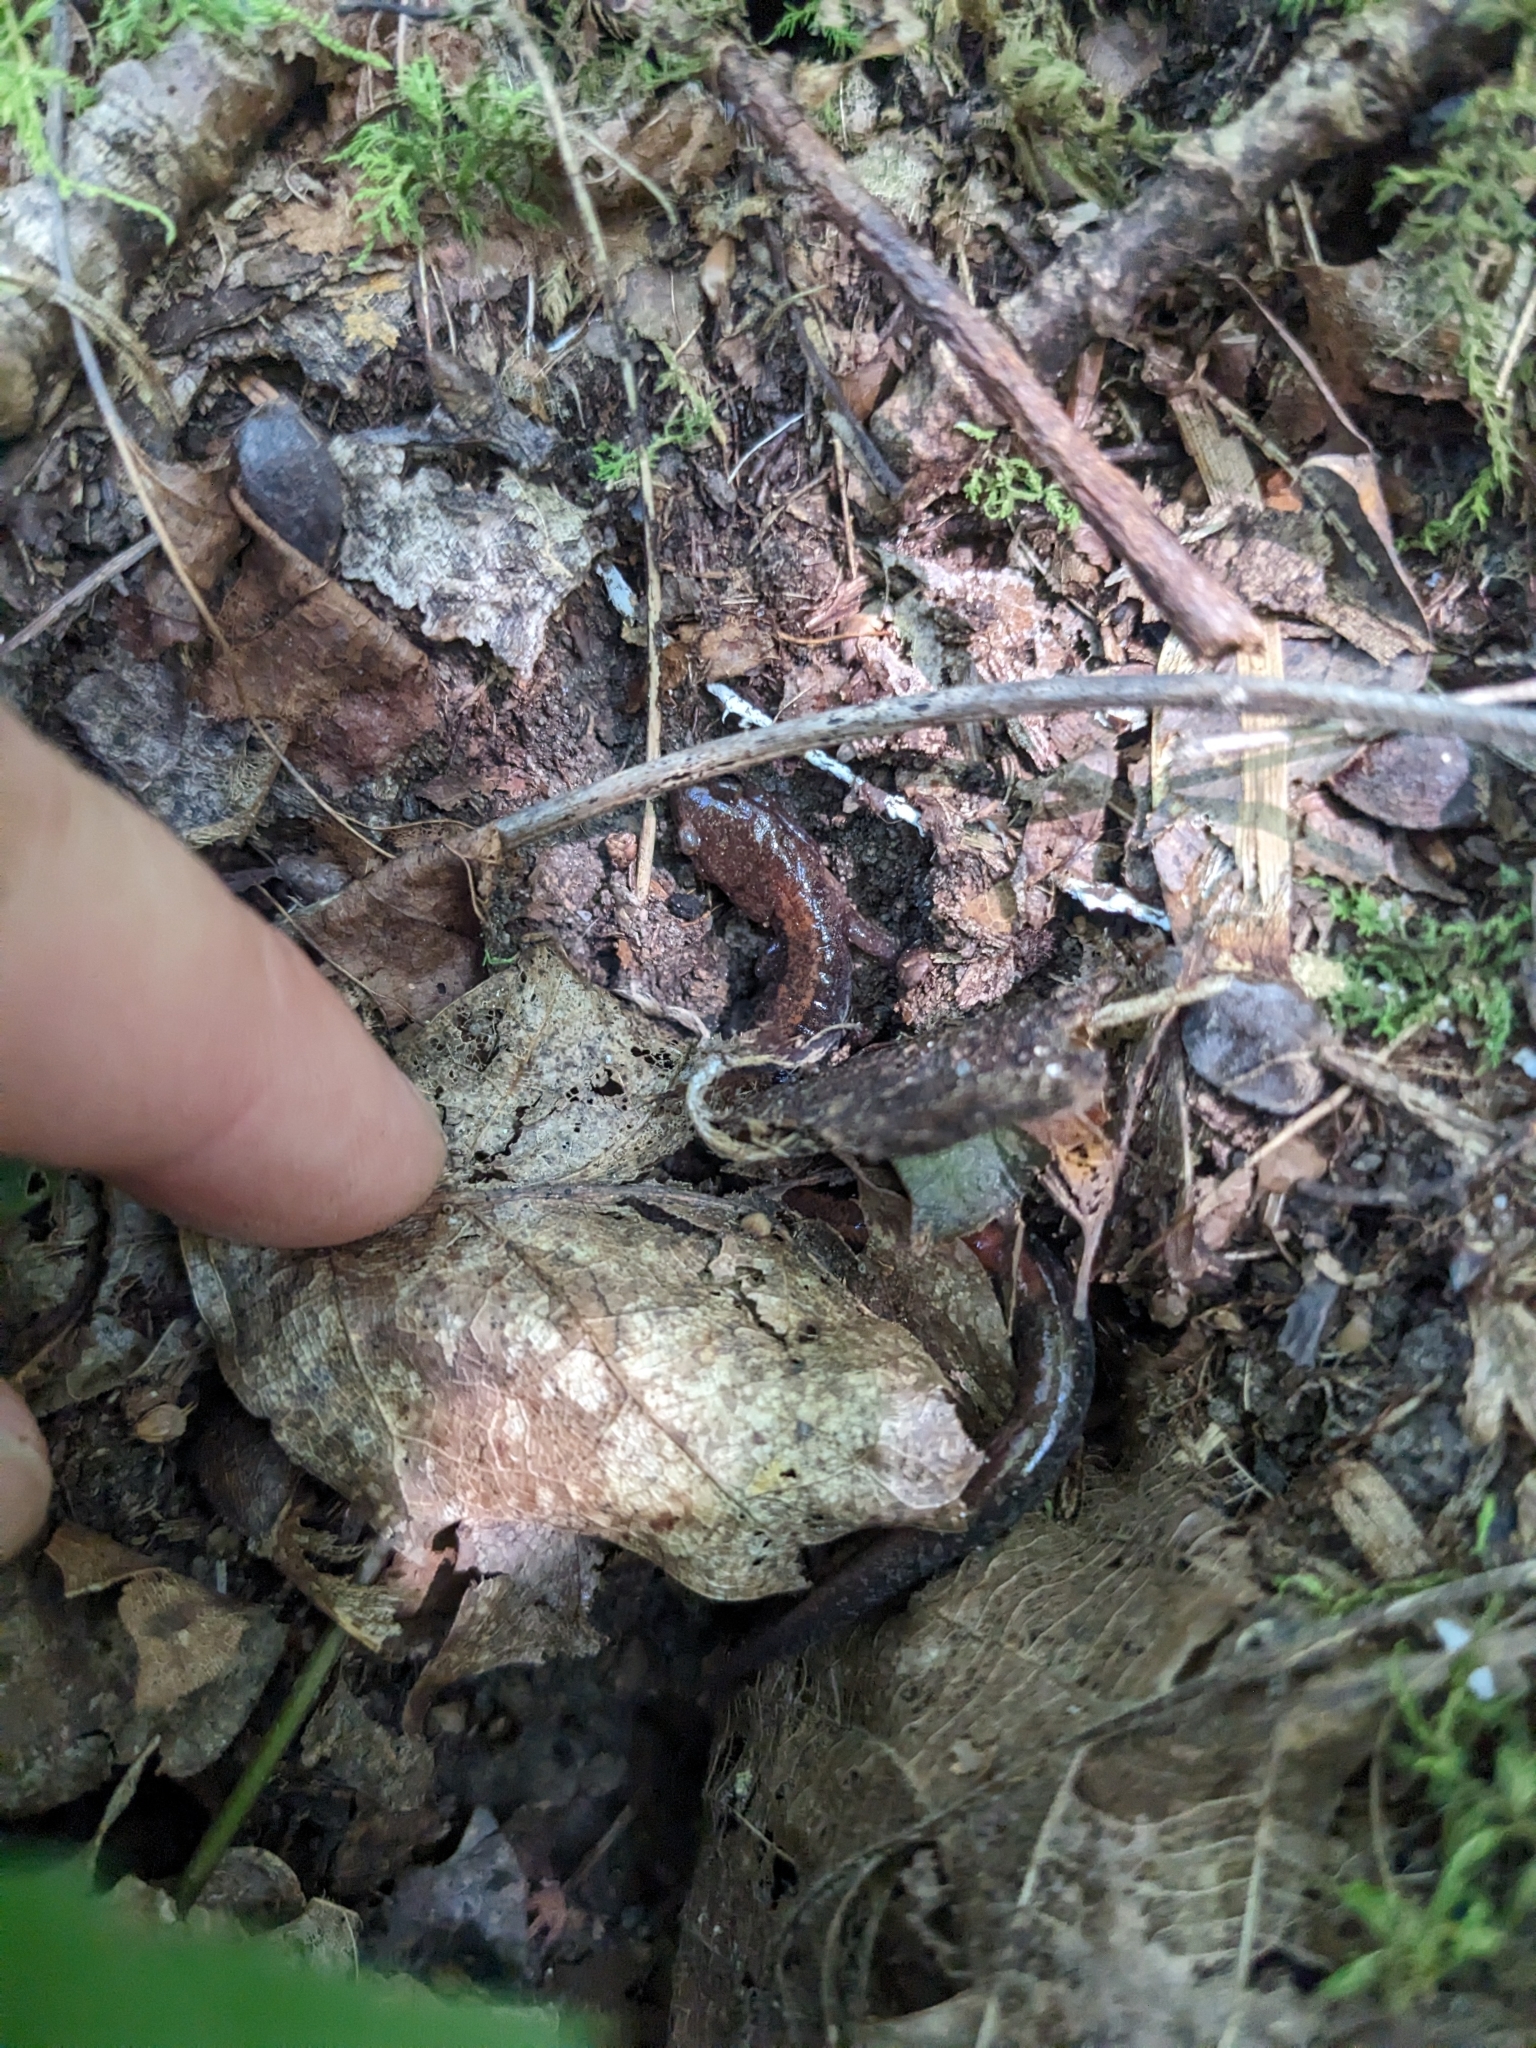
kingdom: Animalia
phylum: Chordata
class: Amphibia
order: Caudata
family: Plethodontidae
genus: Plethodon
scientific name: Plethodon cinereus
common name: Redback salamander
